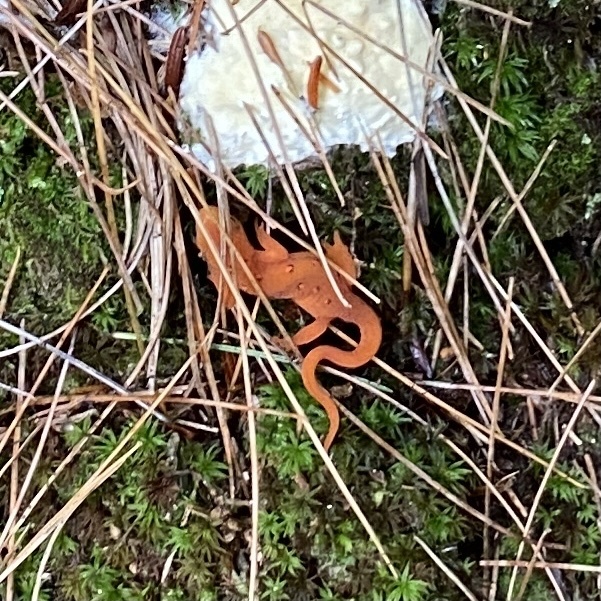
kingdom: Animalia
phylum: Chordata
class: Amphibia
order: Caudata
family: Salamandridae
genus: Notophthalmus
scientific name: Notophthalmus viridescens
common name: Eastern newt
